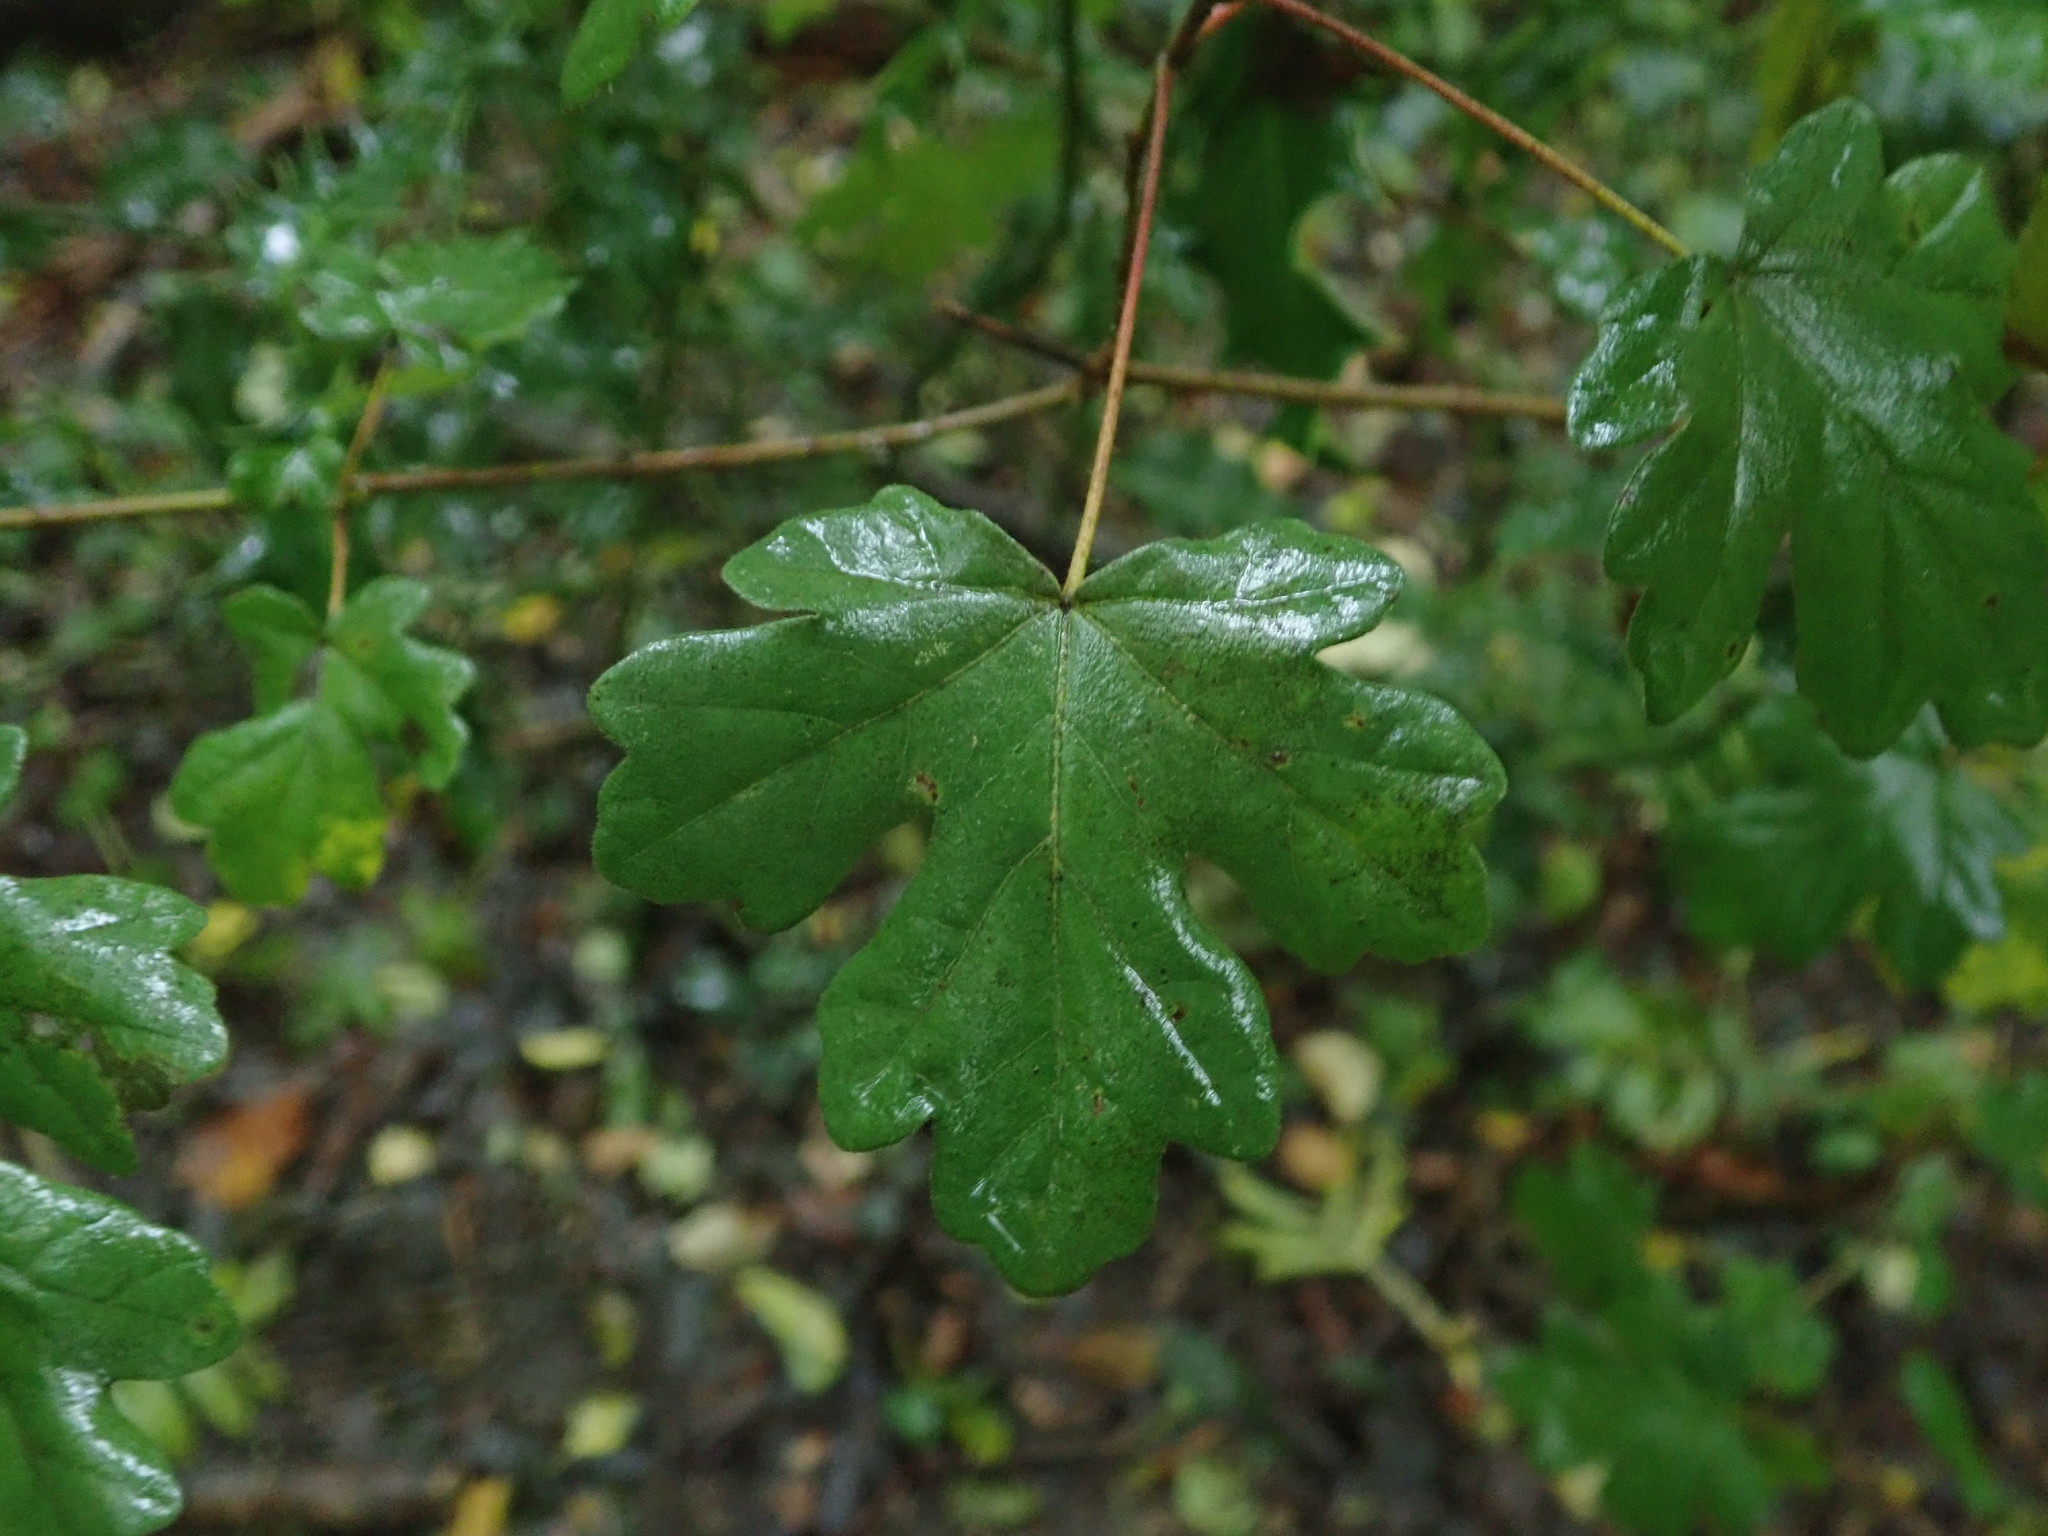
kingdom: Plantae
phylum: Tracheophyta
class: Magnoliopsida
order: Sapindales
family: Sapindaceae
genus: Acer
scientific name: Acer campestre
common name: Field maple
